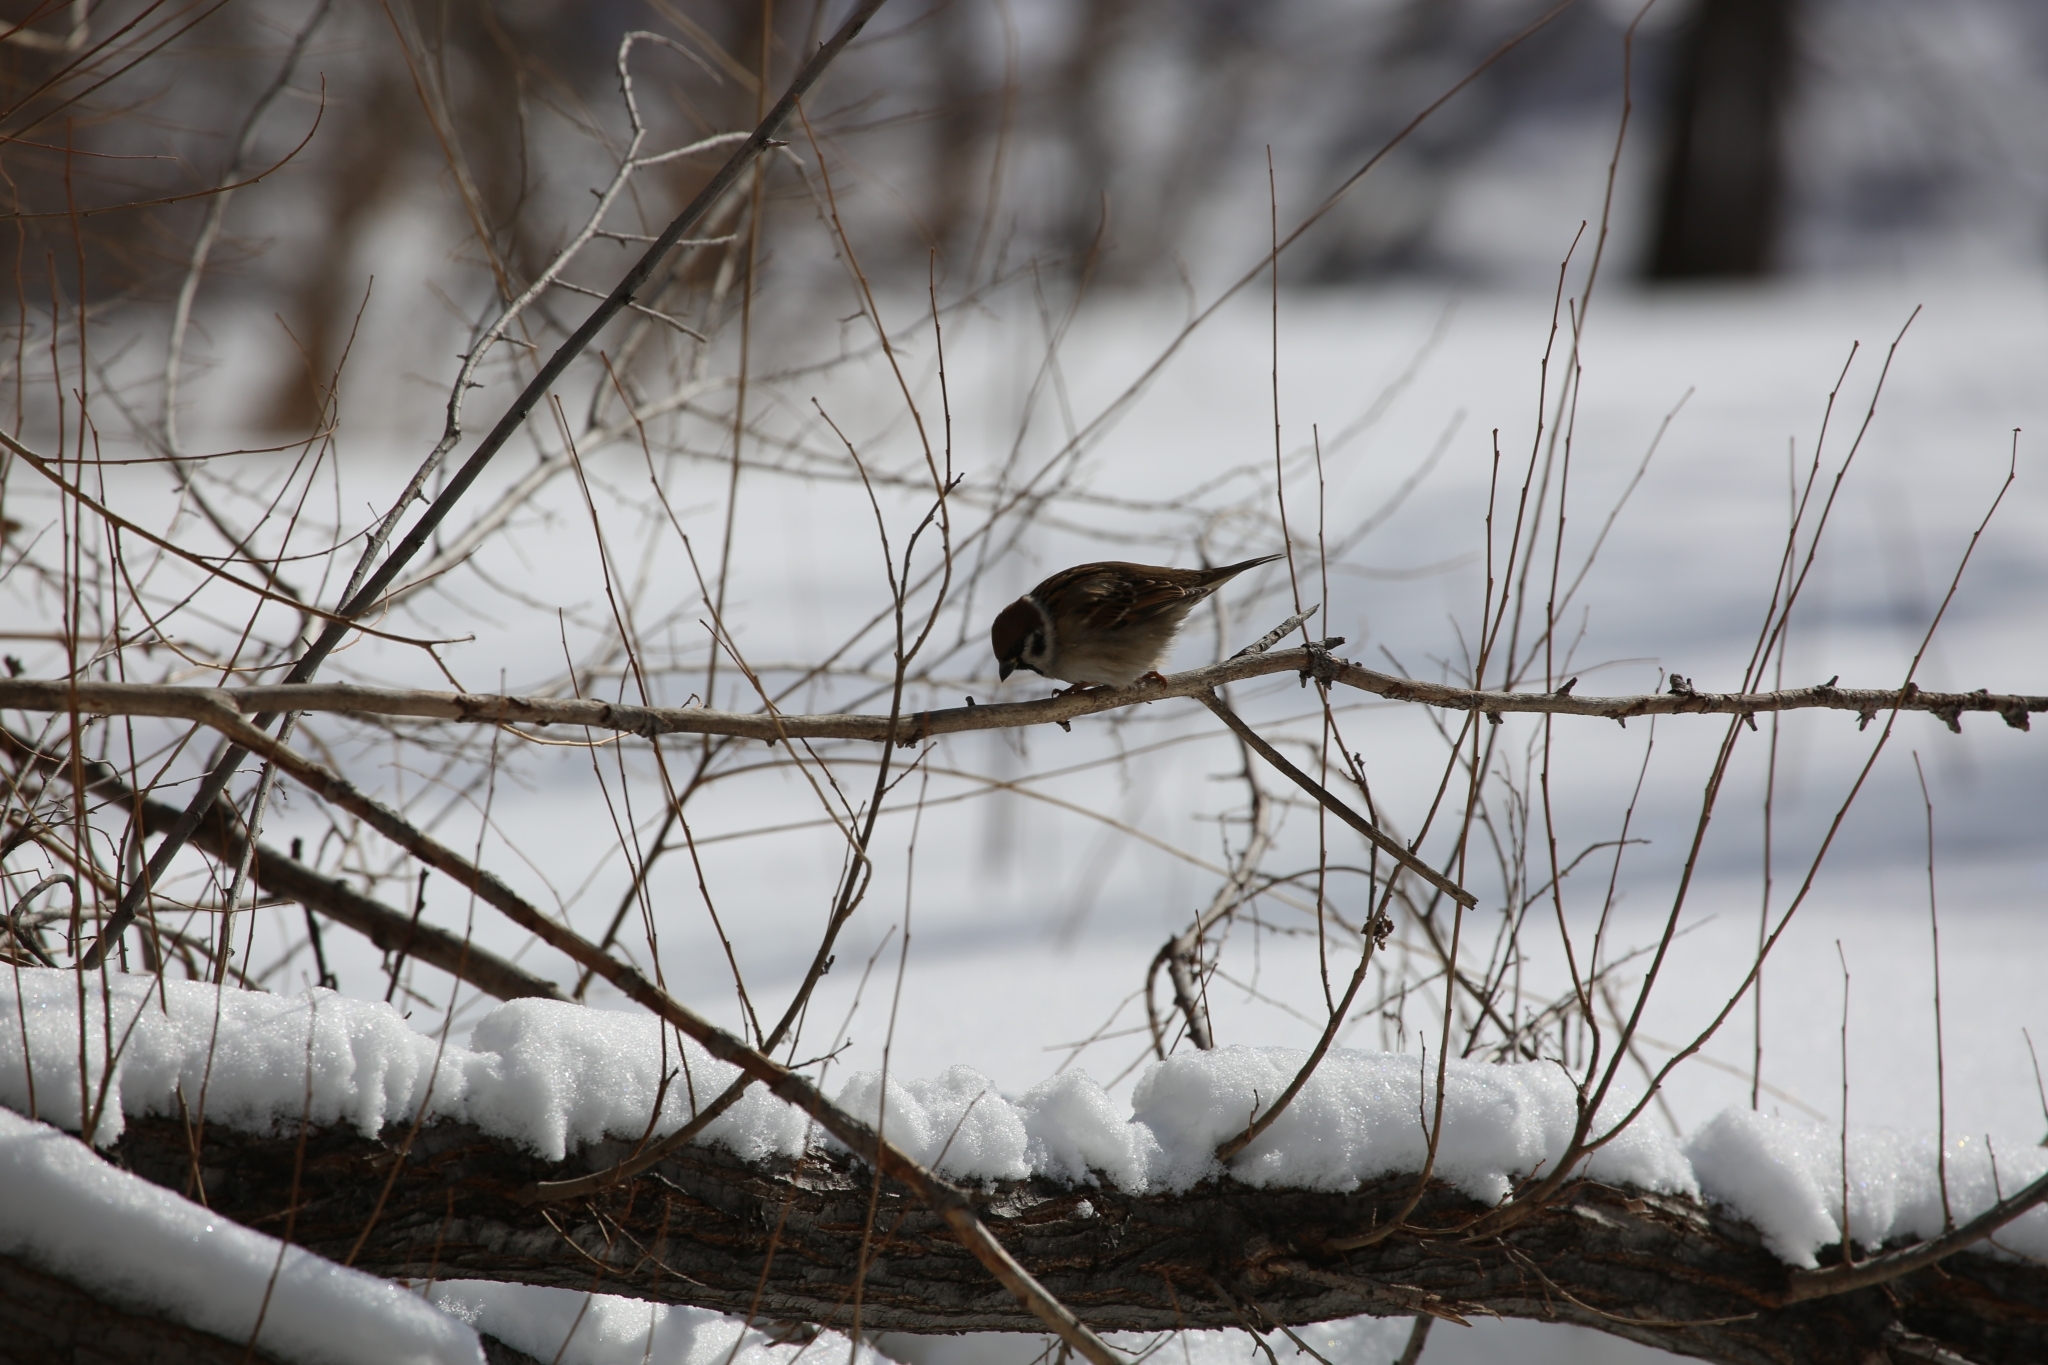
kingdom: Animalia
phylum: Chordata
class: Aves
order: Passeriformes
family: Passeridae
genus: Passer
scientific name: Passer montanus
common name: Eurasian tree sparrow
